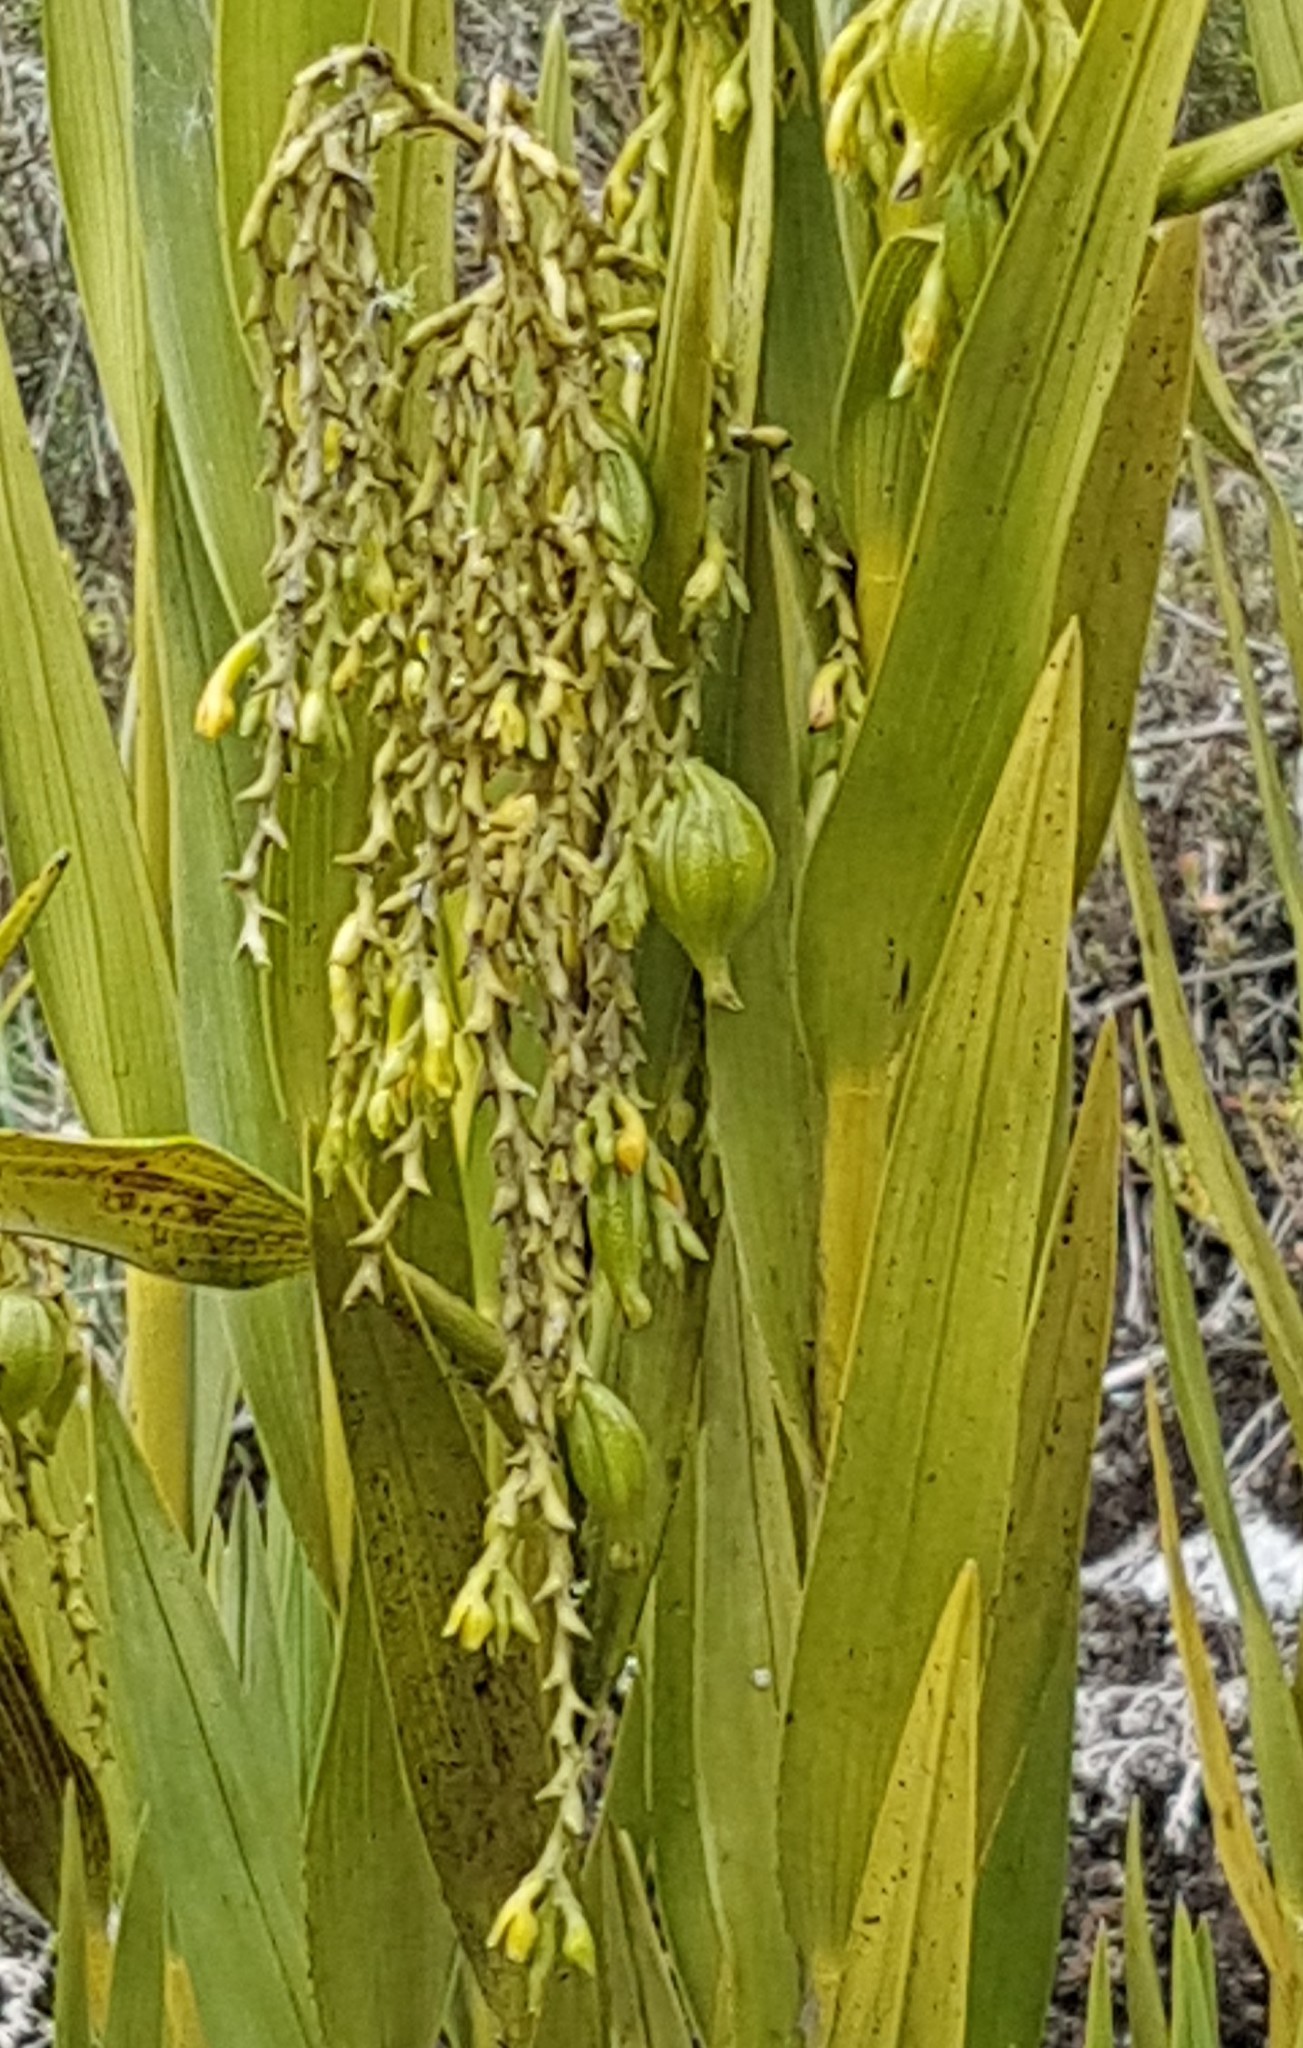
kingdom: Plantae
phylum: Tracheophyta
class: Liliopsida
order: Asparagales
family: Orchidaceae
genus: Epidendrum
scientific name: Epidendrum frutex
